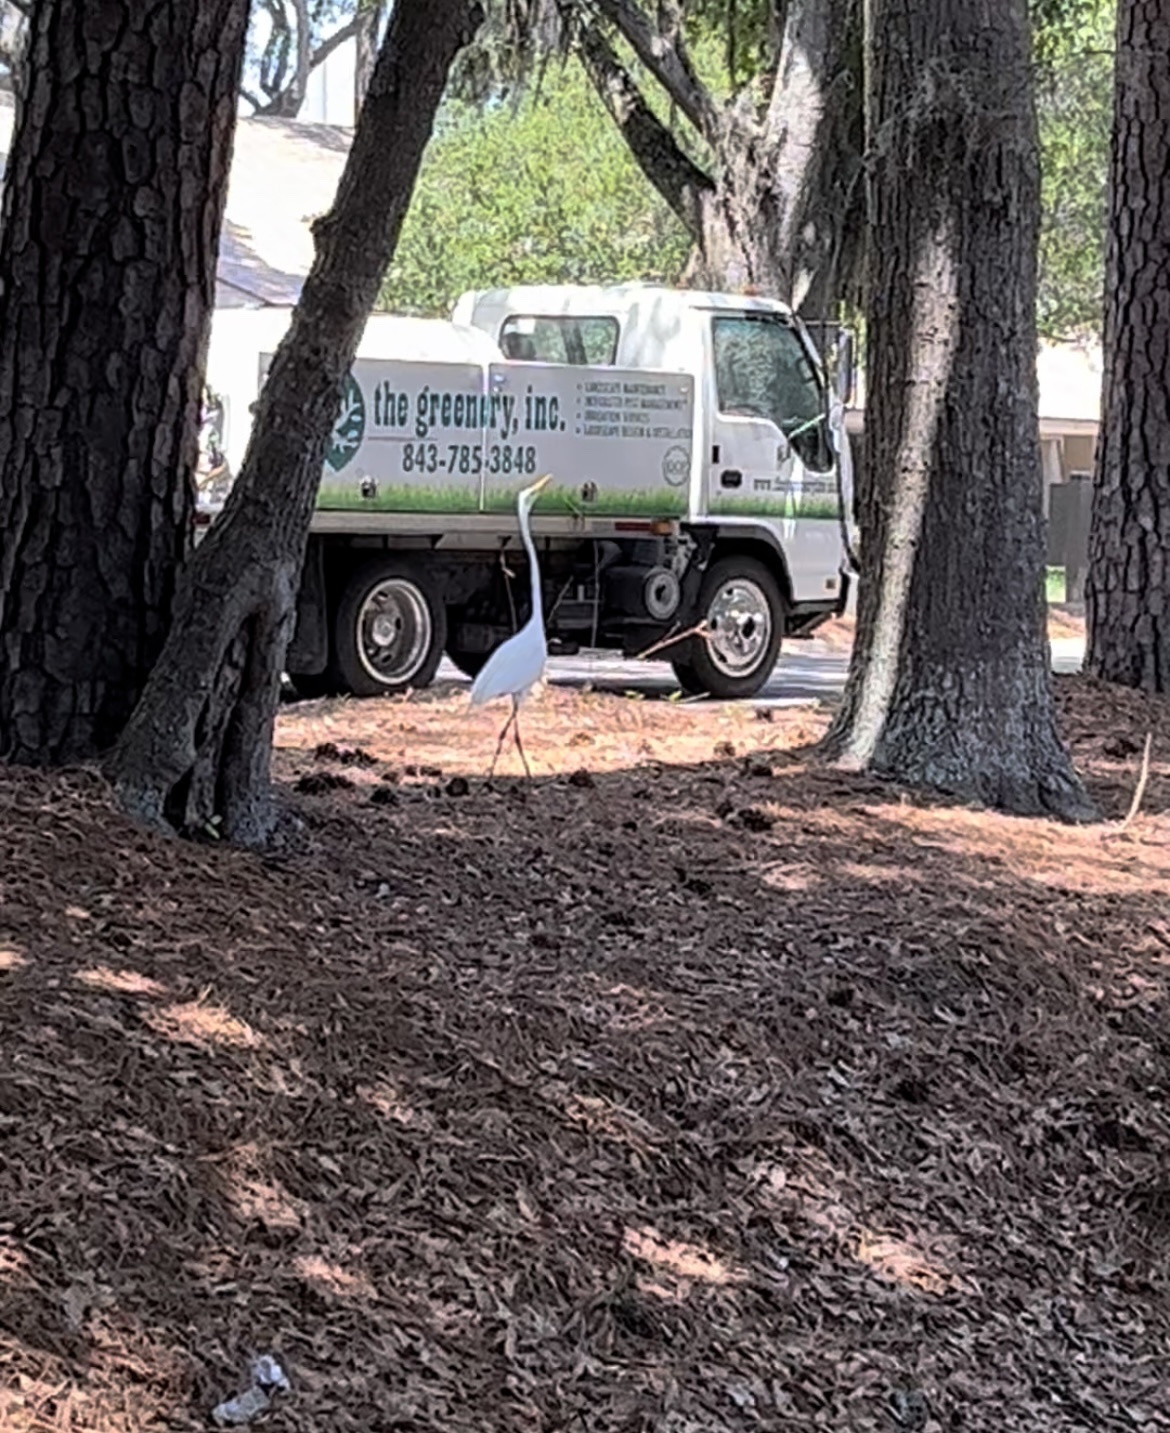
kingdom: Animalia
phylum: Chordata
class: Aves
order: Pelecaniformes
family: Ardeidae
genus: Ardea
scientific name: Ardea alba
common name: Great egret
